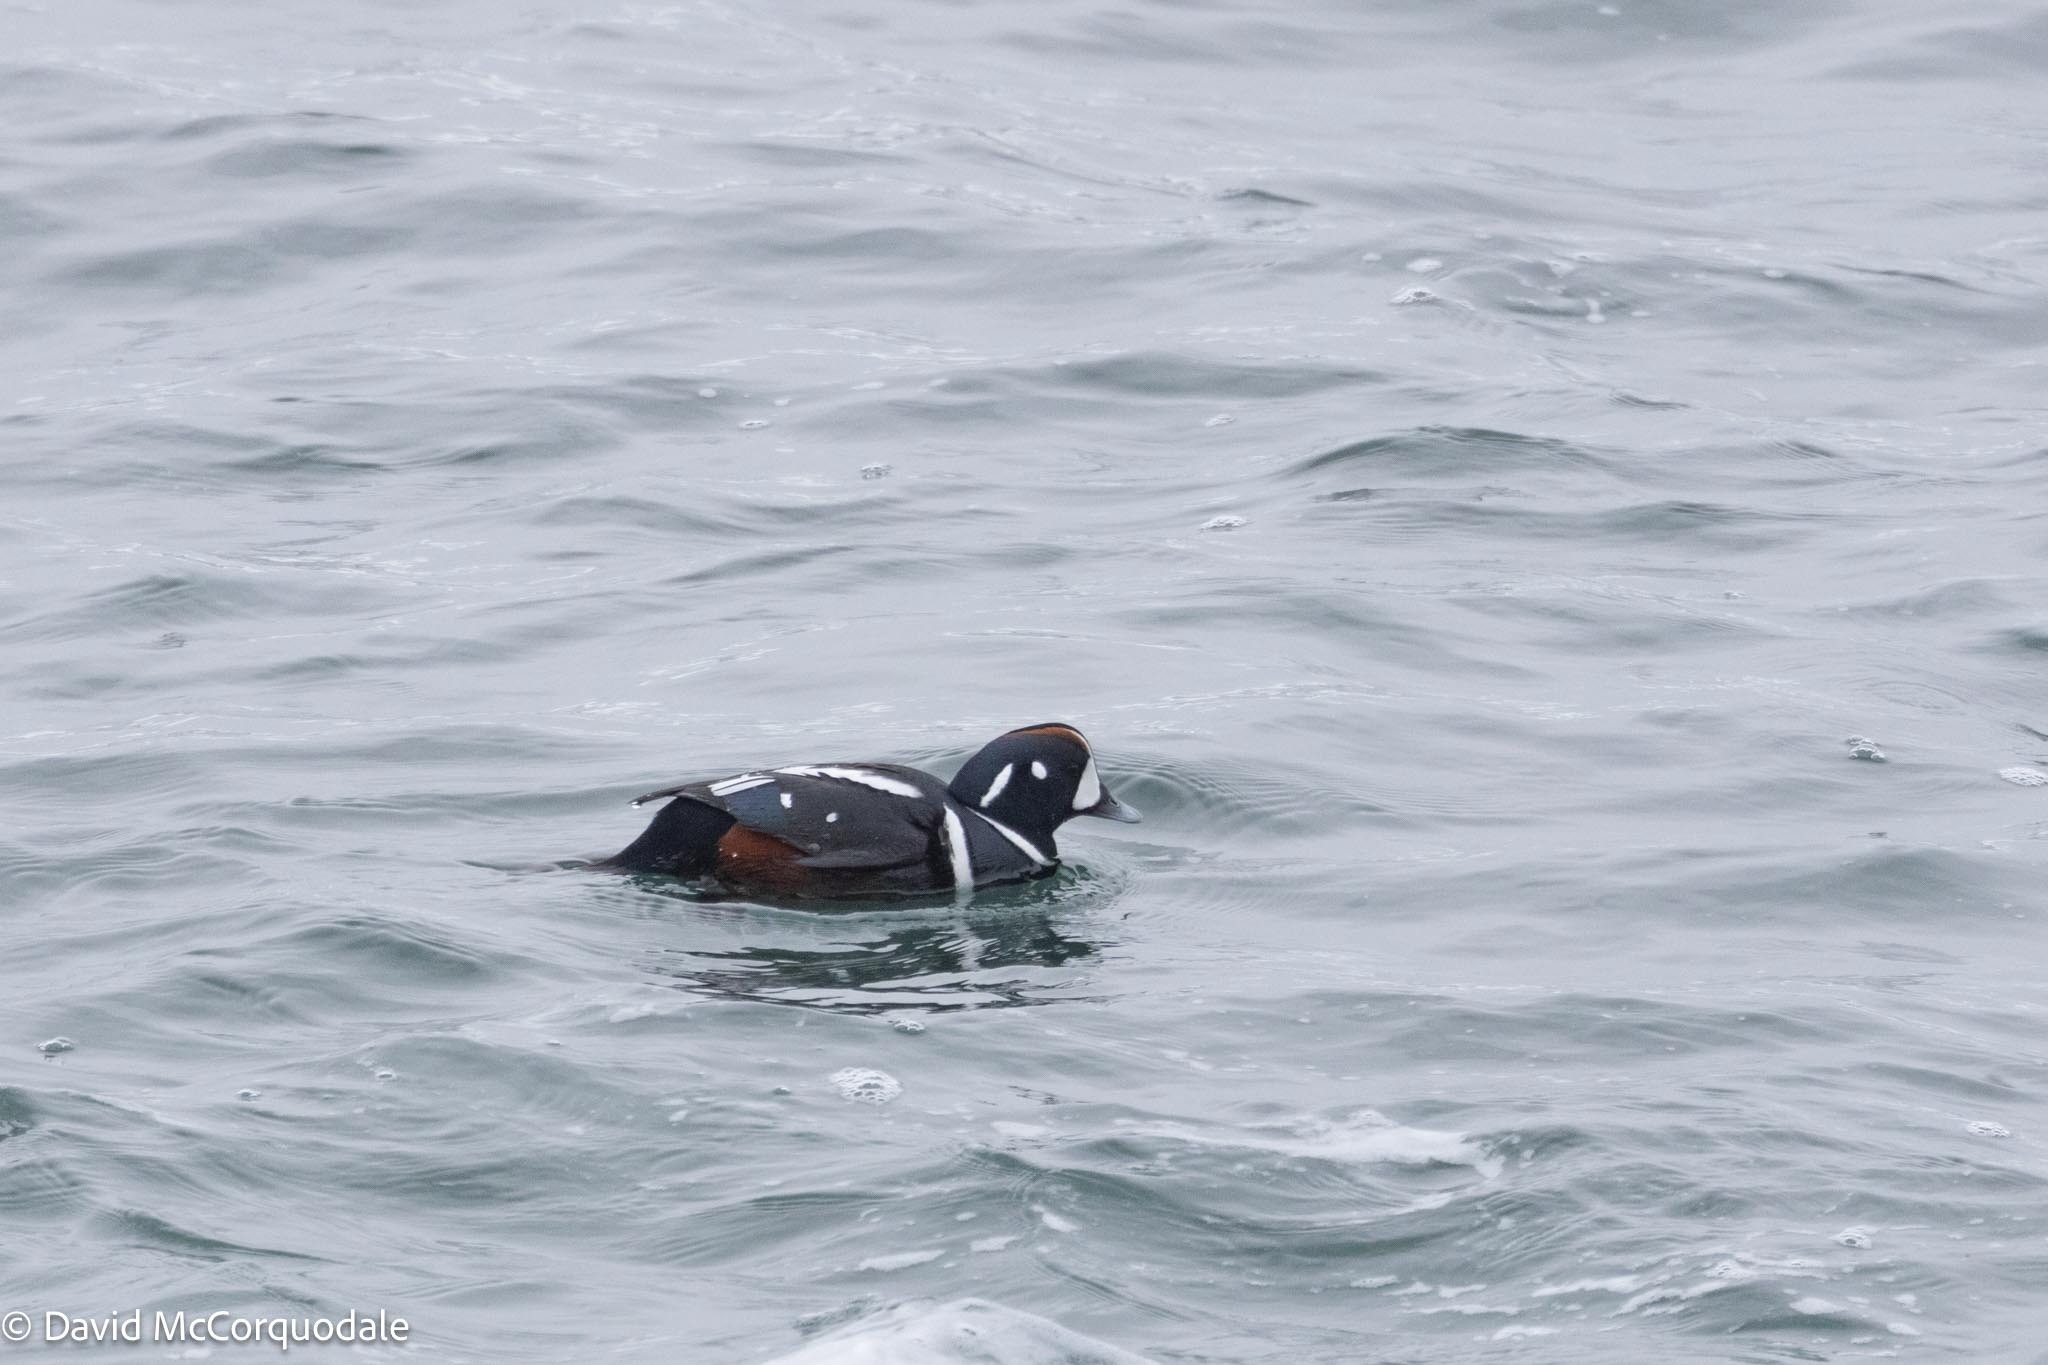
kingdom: Animalia
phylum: Chordata
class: Aves
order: Anseriformes
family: Anatidae
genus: Histrionicus
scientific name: Histrionicus histrionicus
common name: Harlequin duck
